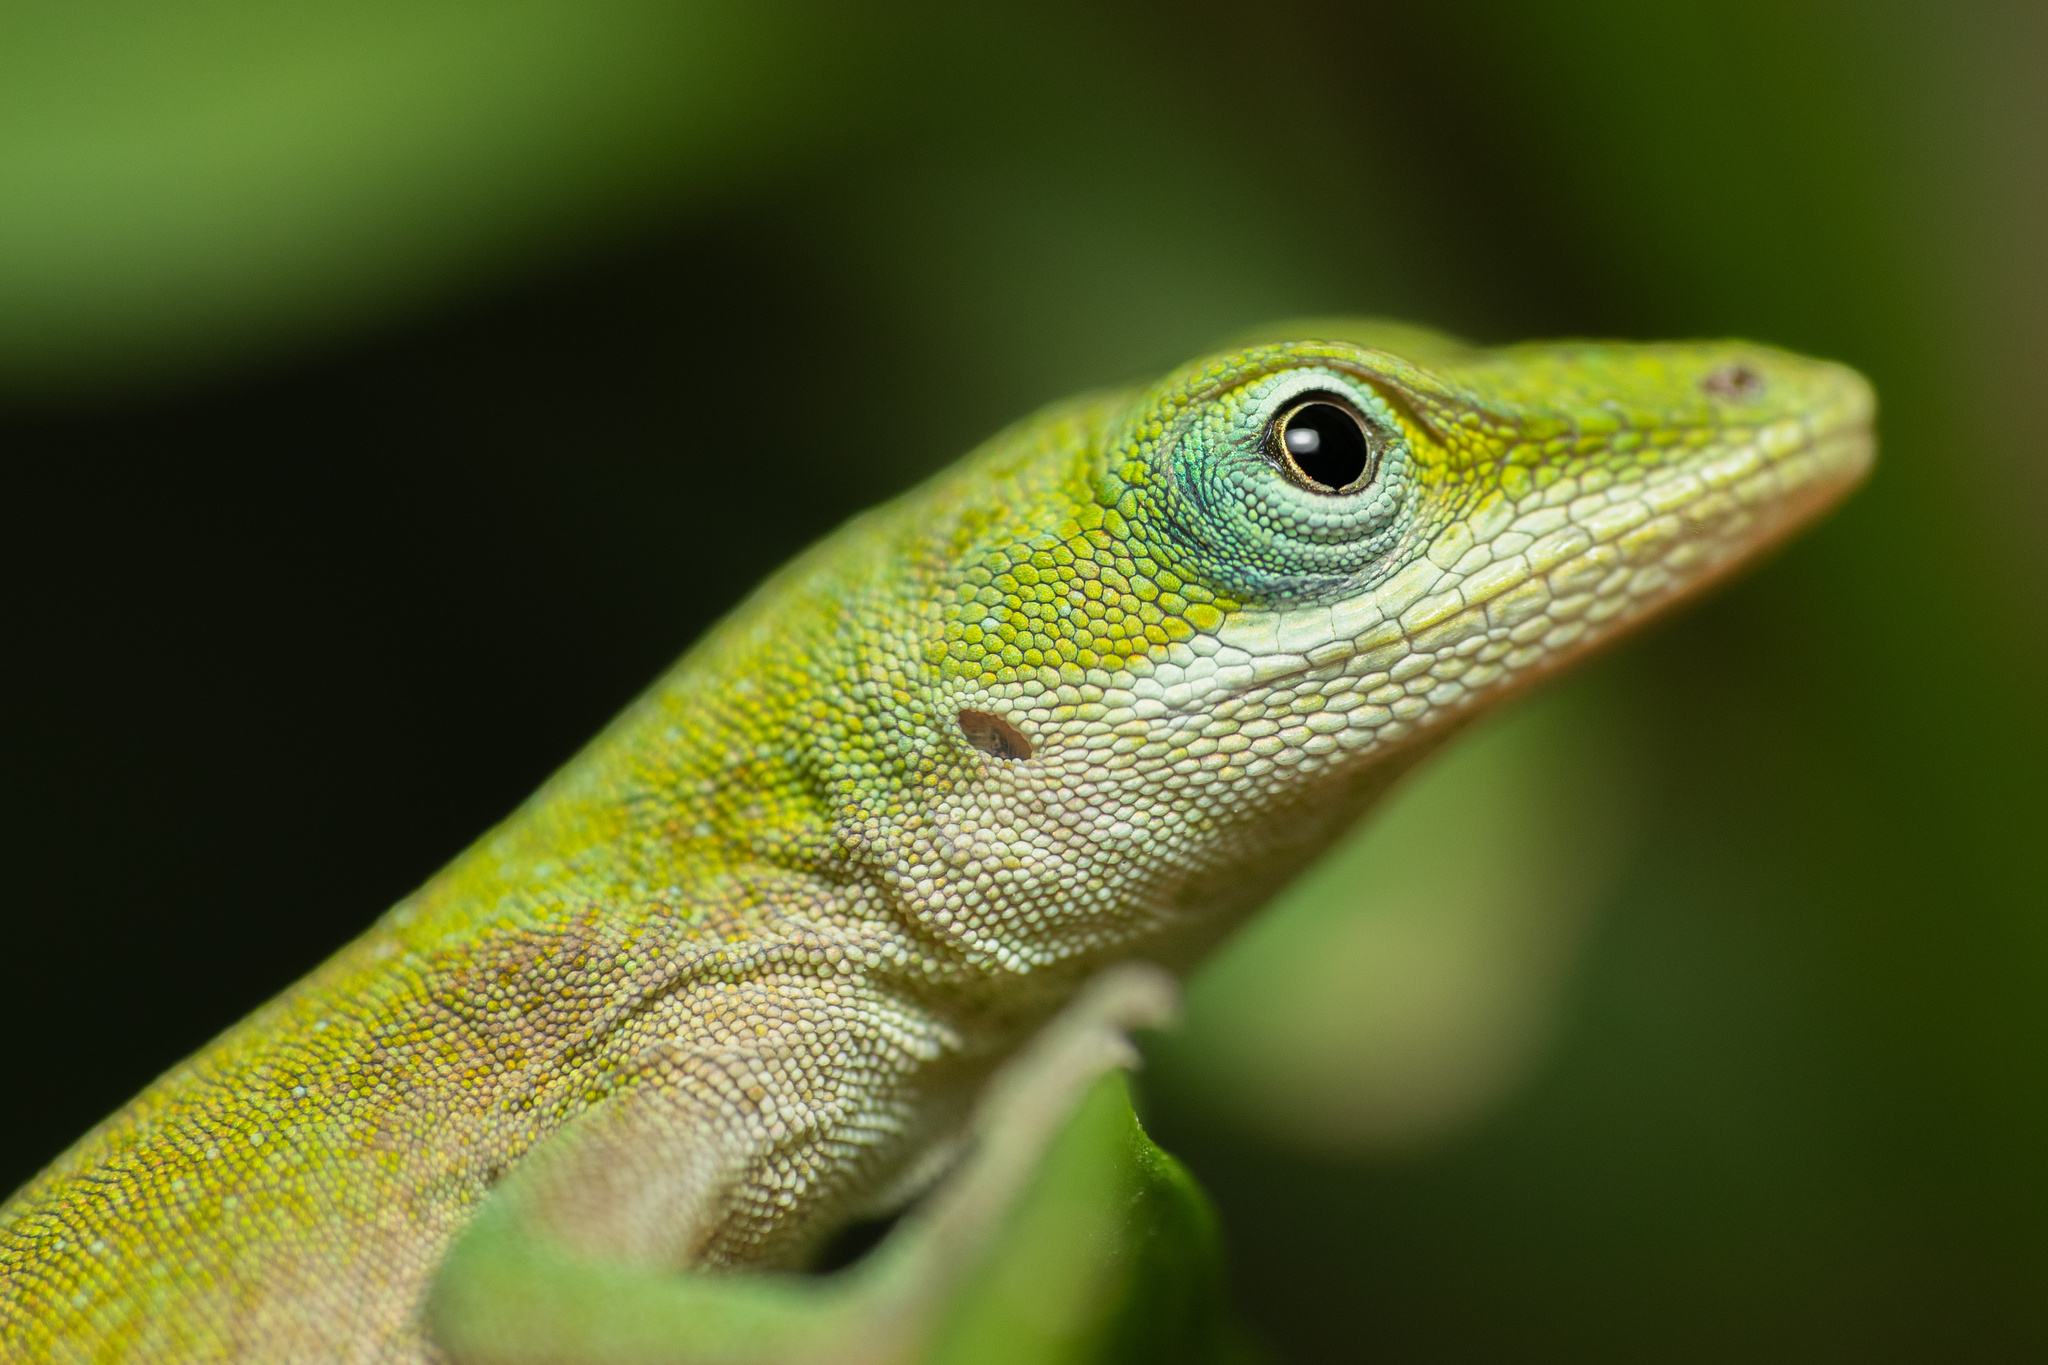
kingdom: Animalia
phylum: Chordata
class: Squamata
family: Dactyloidae
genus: Anolis
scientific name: Anolis carolinensis
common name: Green anole
